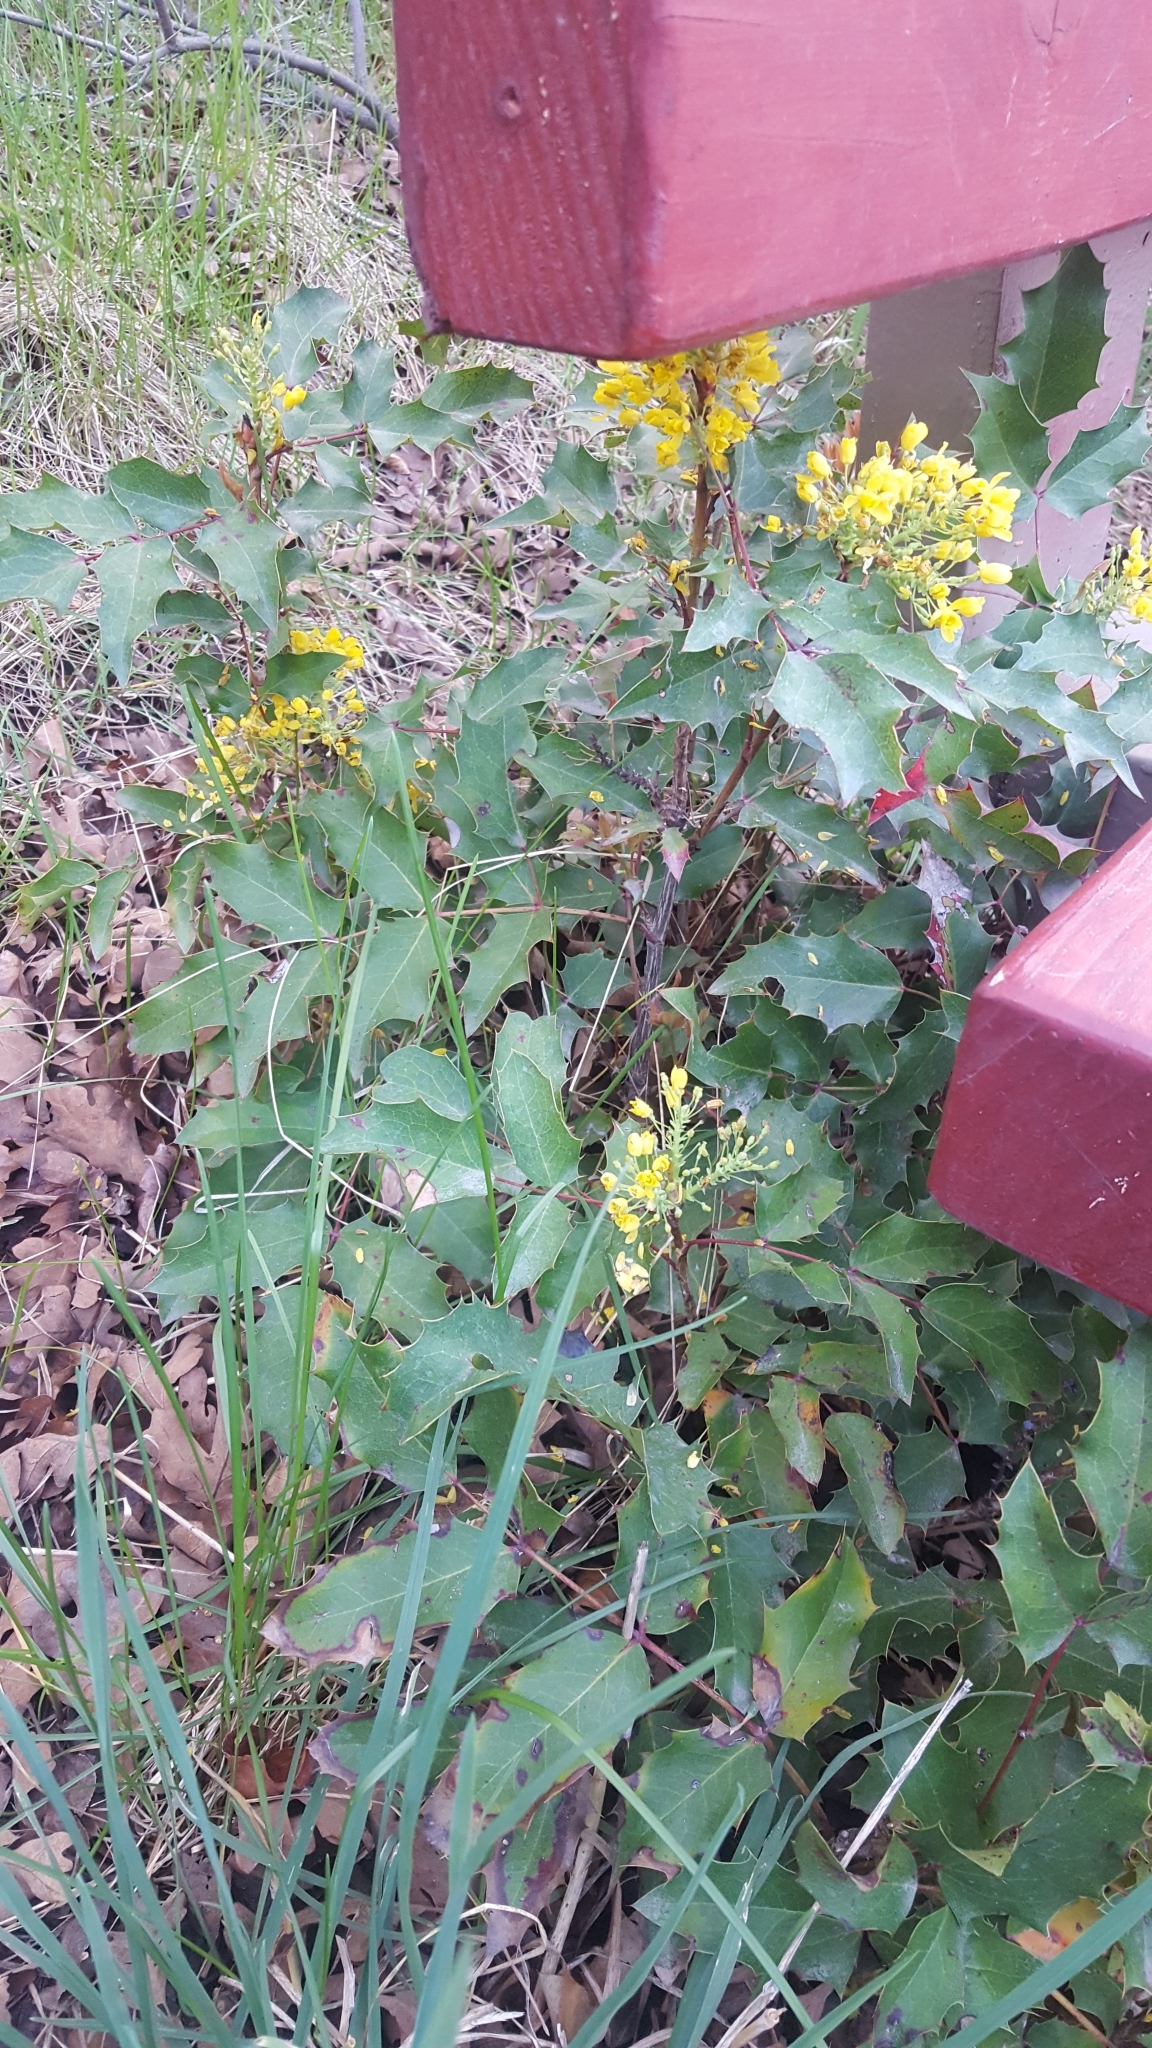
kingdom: Plantae
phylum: Tracheophyta
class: Magnoliopsida
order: Ranunculales
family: Berberidaceae
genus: Mahonia
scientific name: Mahonia repens
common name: Creeping oregon-grape
